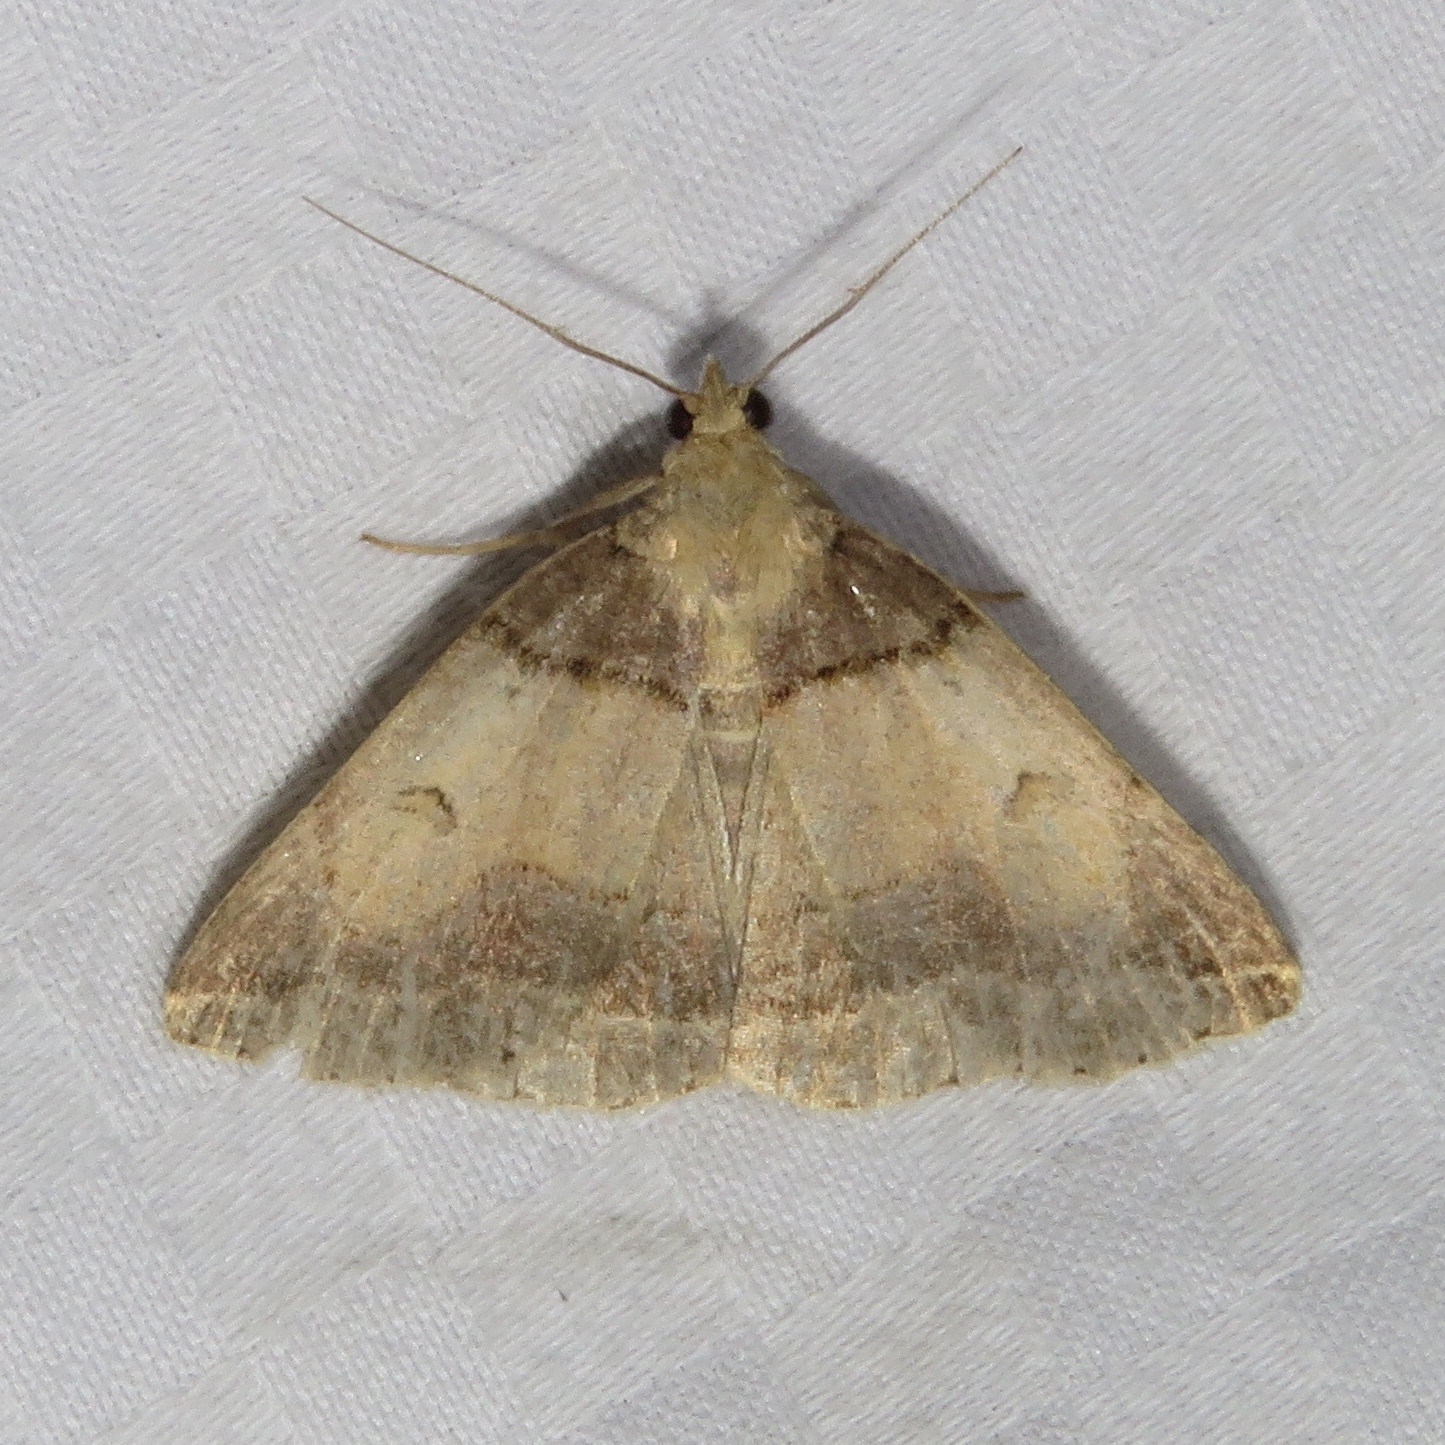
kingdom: Animalia
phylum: Arthropoda
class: Insecta
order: Lepidoptera
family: Erebidae
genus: Zanclognatha
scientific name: Zanclognatha laevigata
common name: Variable fan-foot
